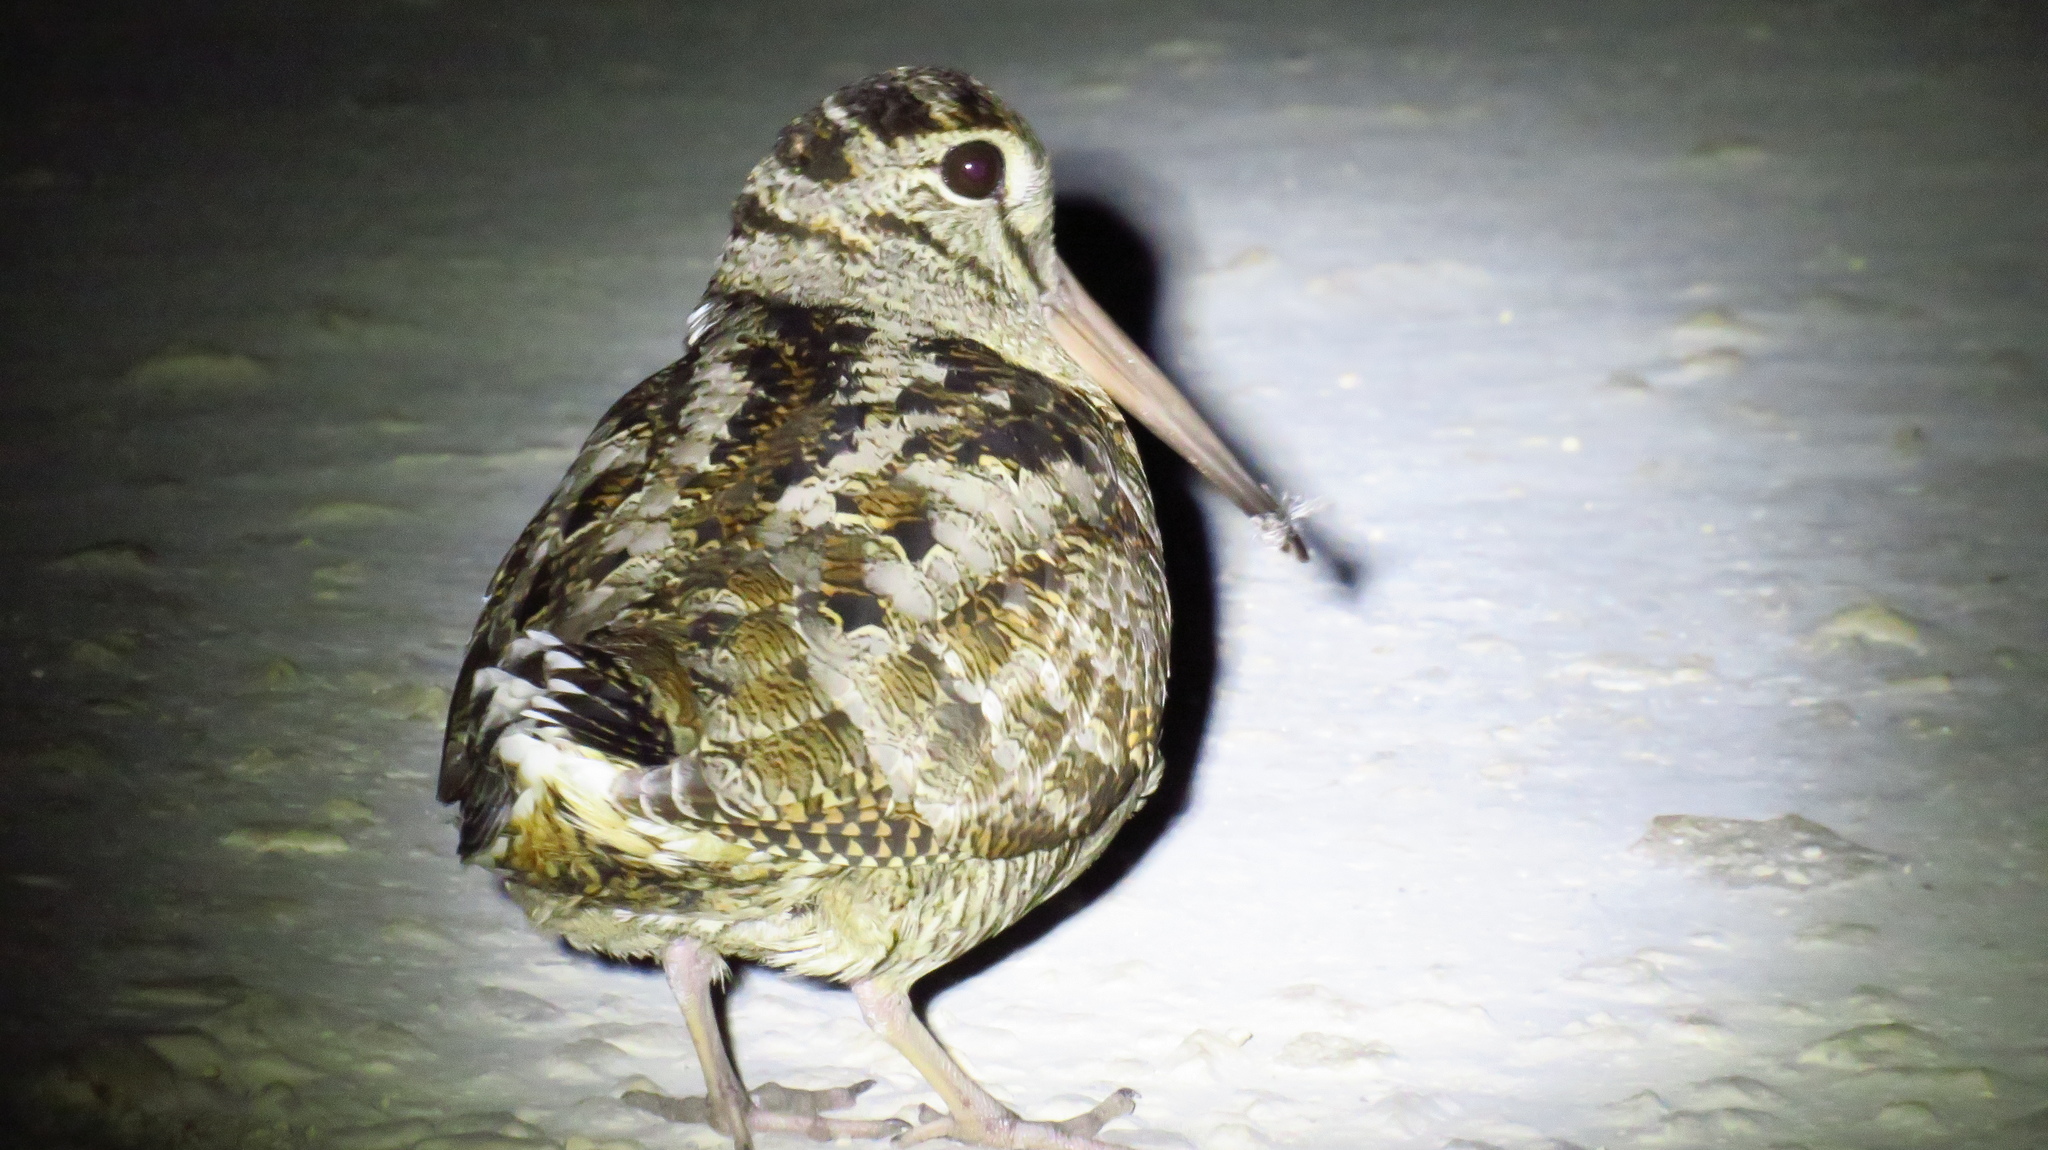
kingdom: Animalia
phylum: Chordata
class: Aves
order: Charadriiformes
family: Scolopacidae
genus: Scolopax
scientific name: Scolopax rusticola
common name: Eurasian woodcock
